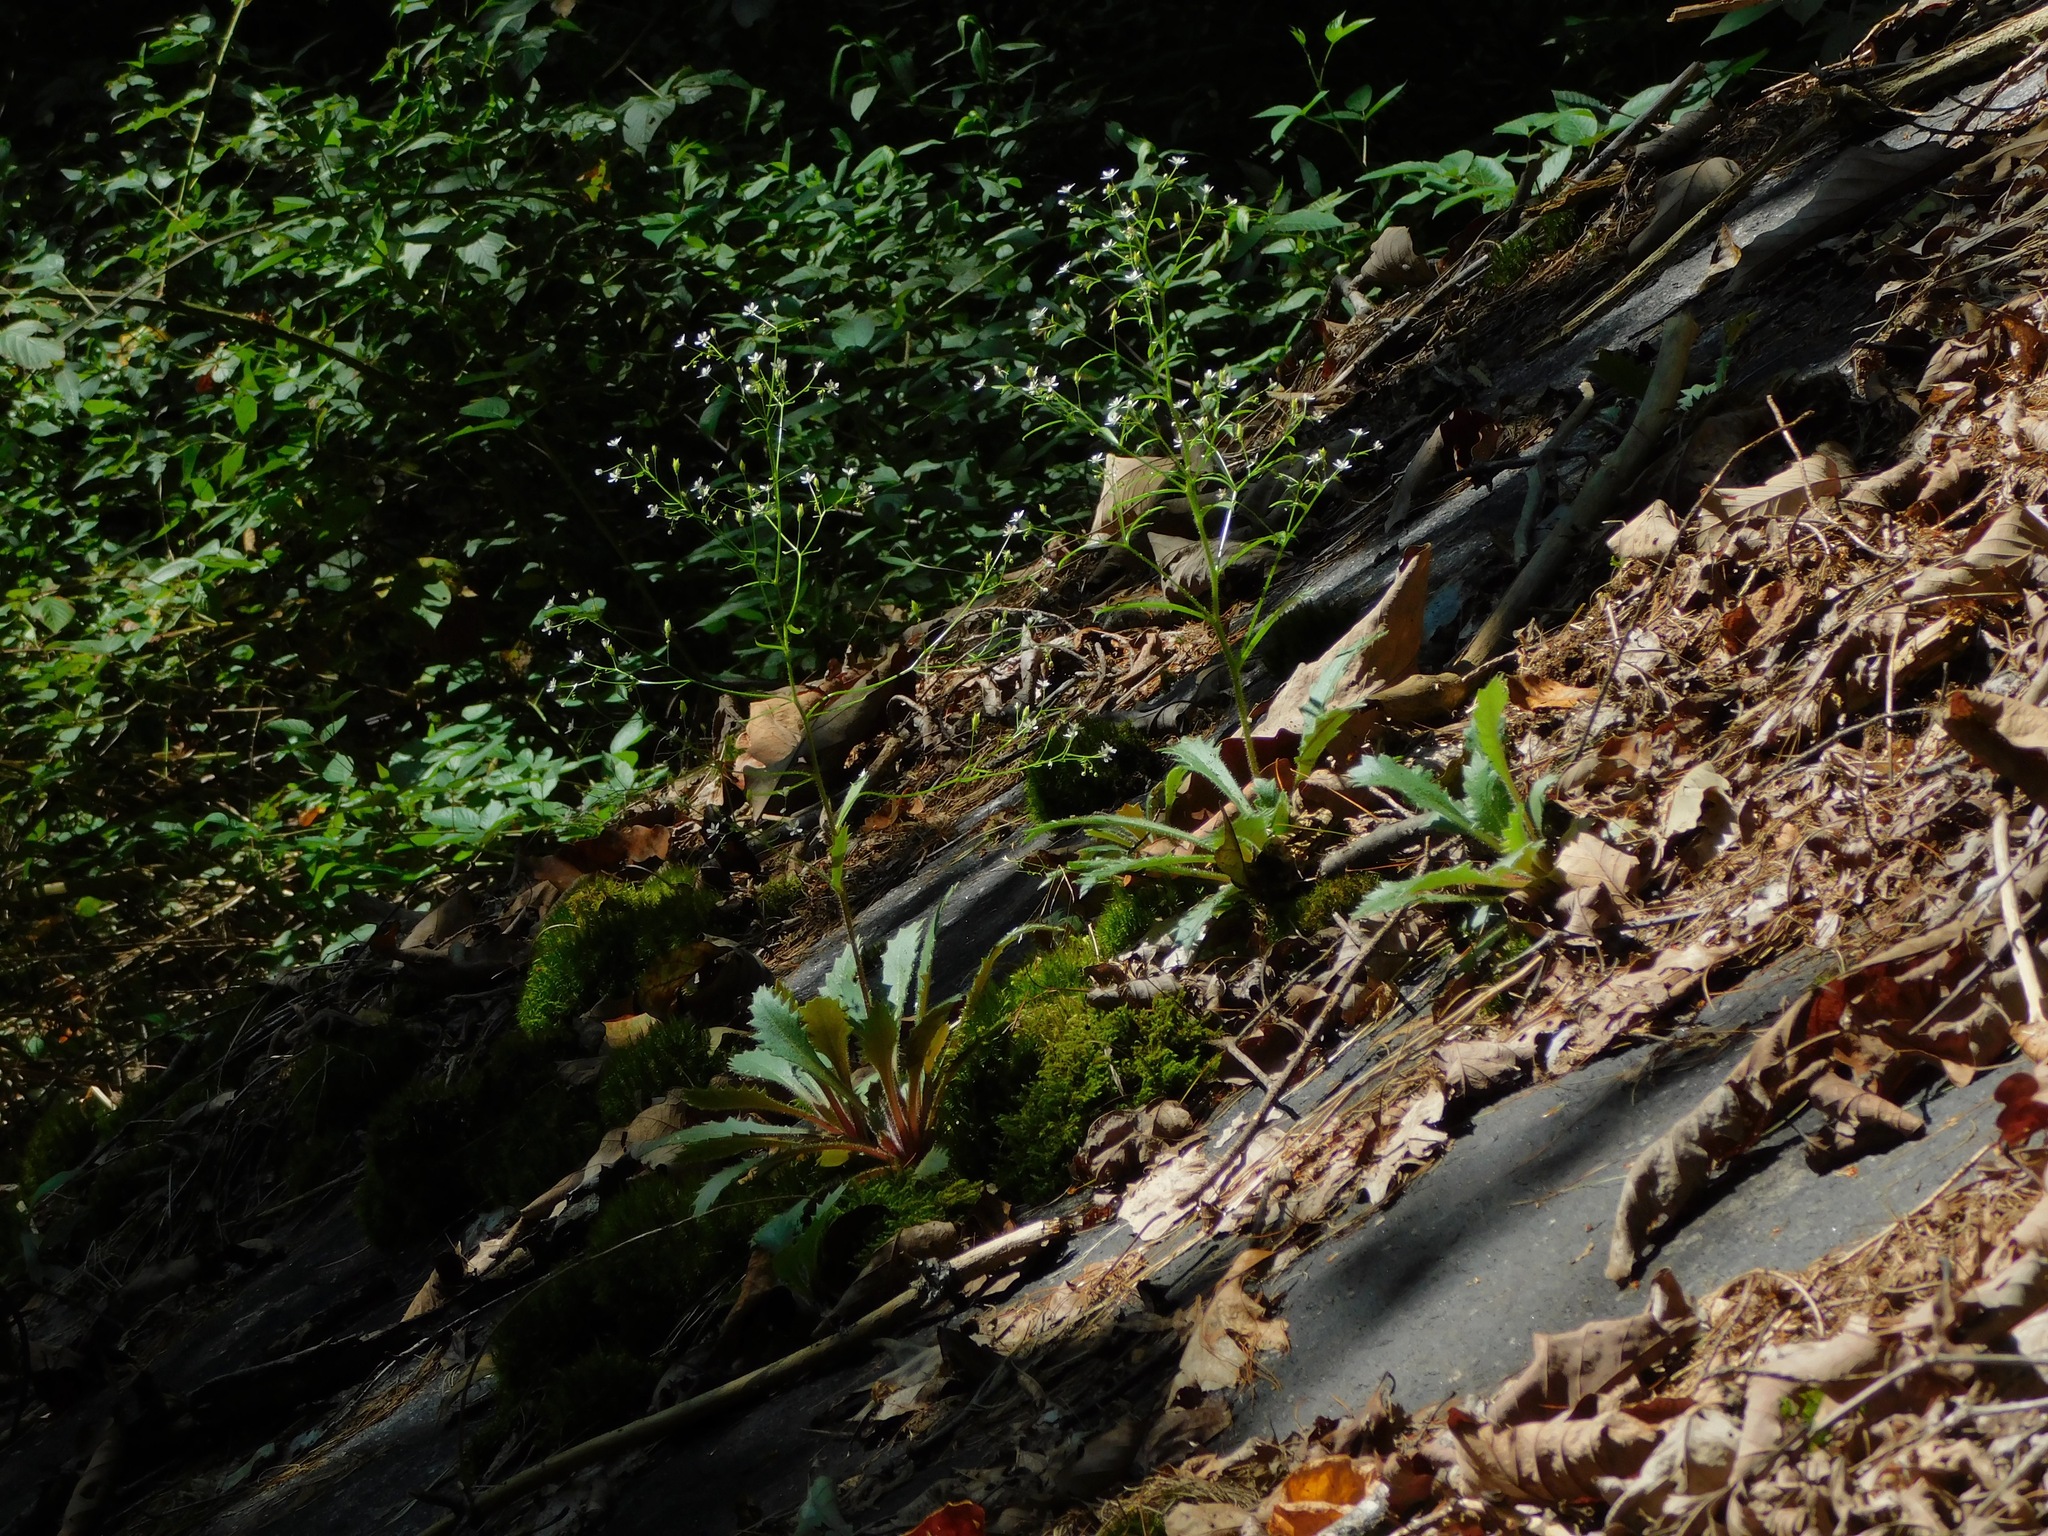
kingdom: Plantae
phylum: Tracheophyta
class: Magnoliopsida
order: Saxifragales
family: Saxifragaceae
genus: Micranthes
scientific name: Micranthes petiolaris
